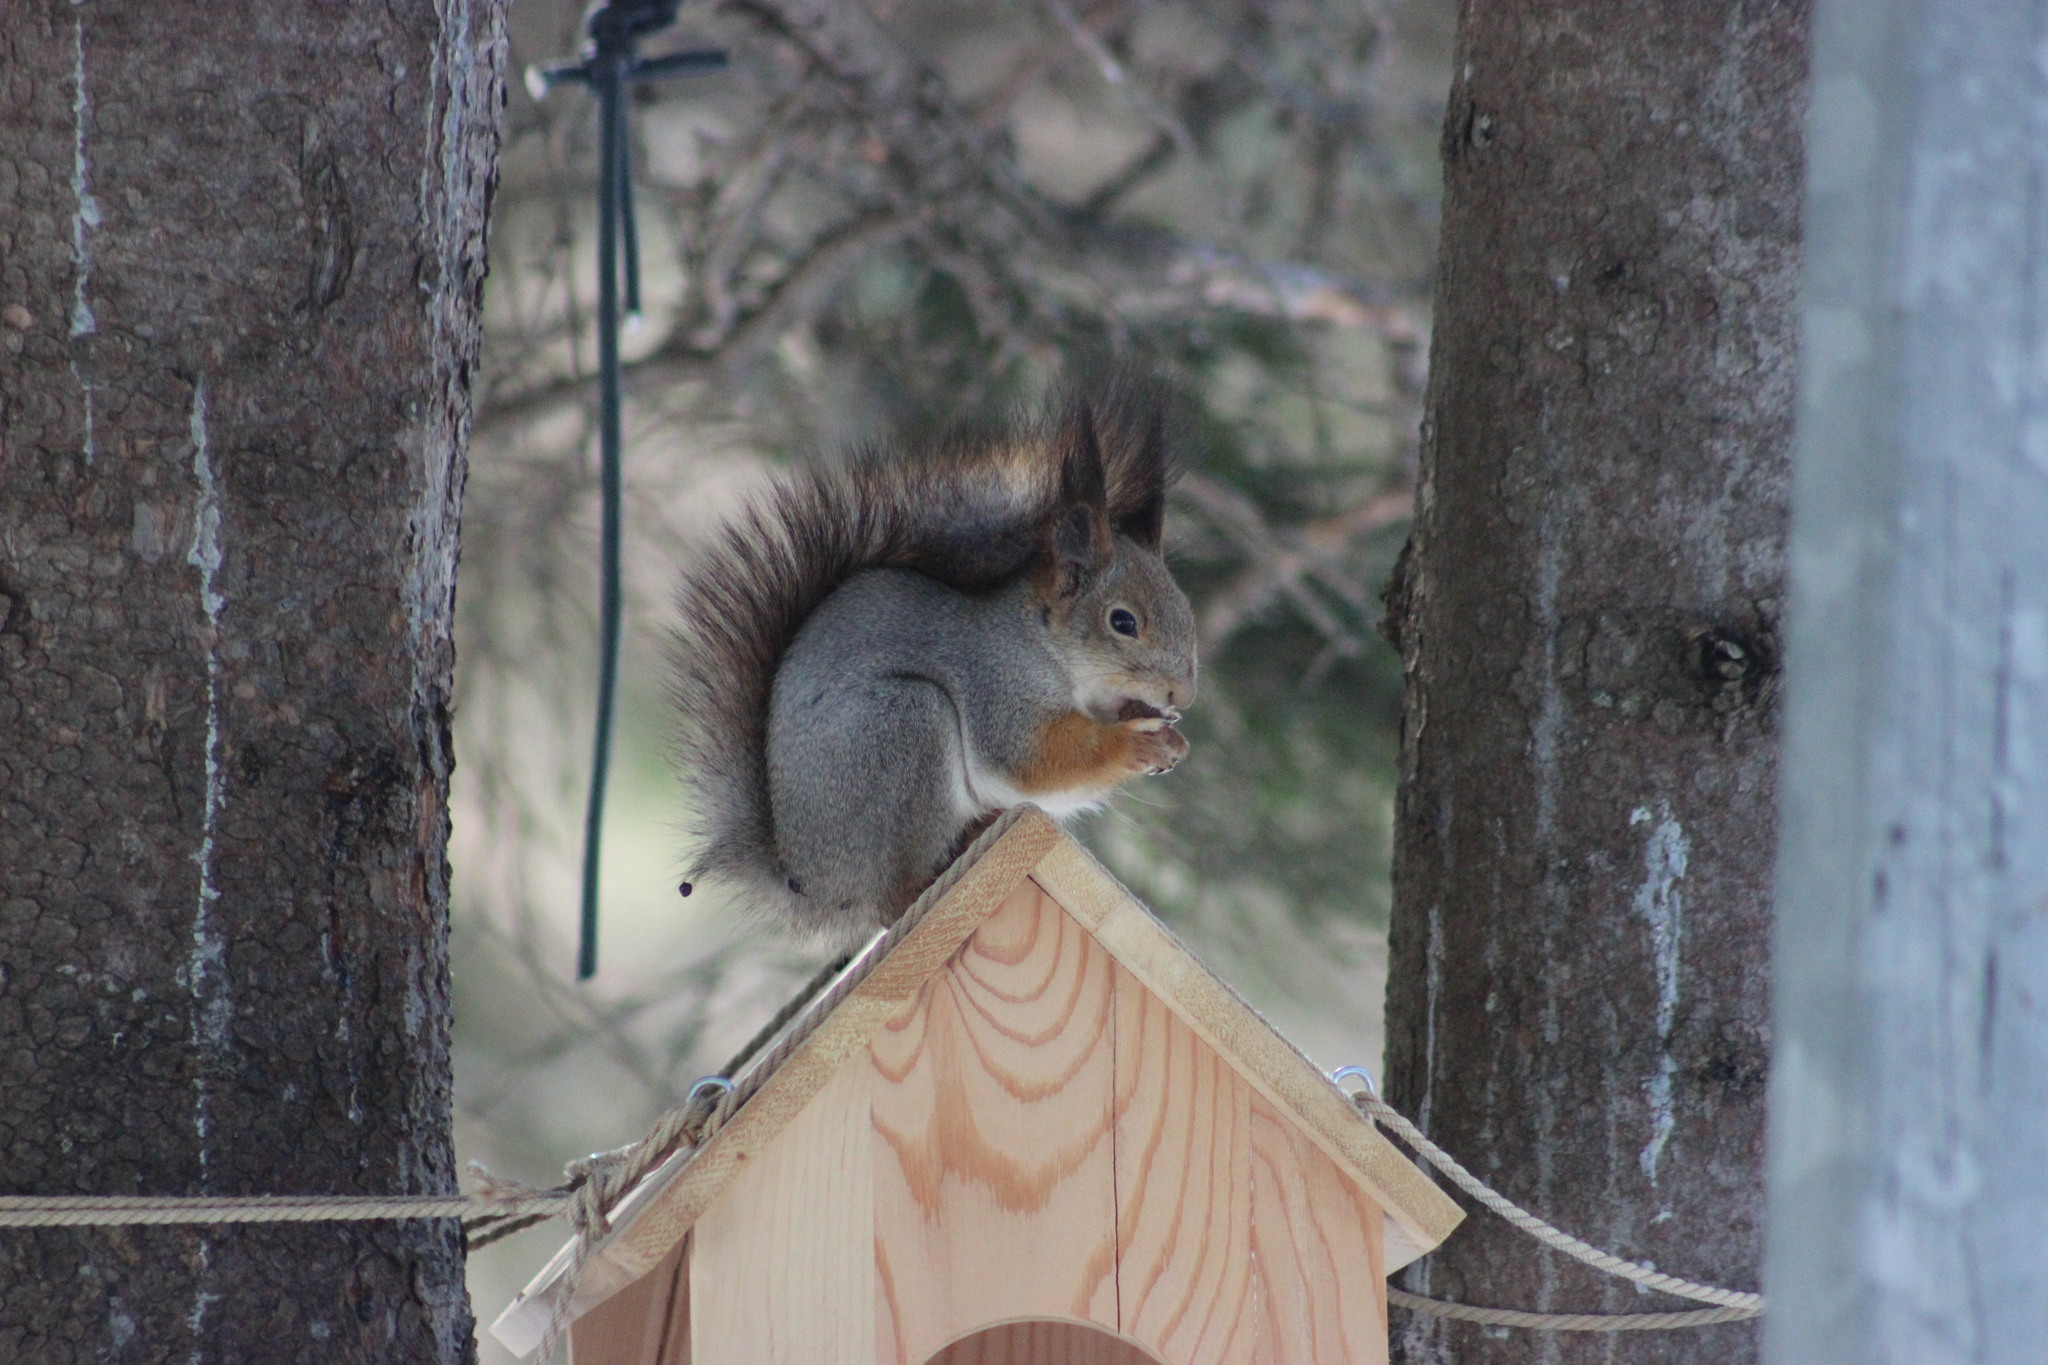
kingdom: Animalia
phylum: Chordata
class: Mammalia
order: Rodentia
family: Sciuridae
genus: Sciurus
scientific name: Sciurus vulgaris
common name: Eurasian red squirrel
